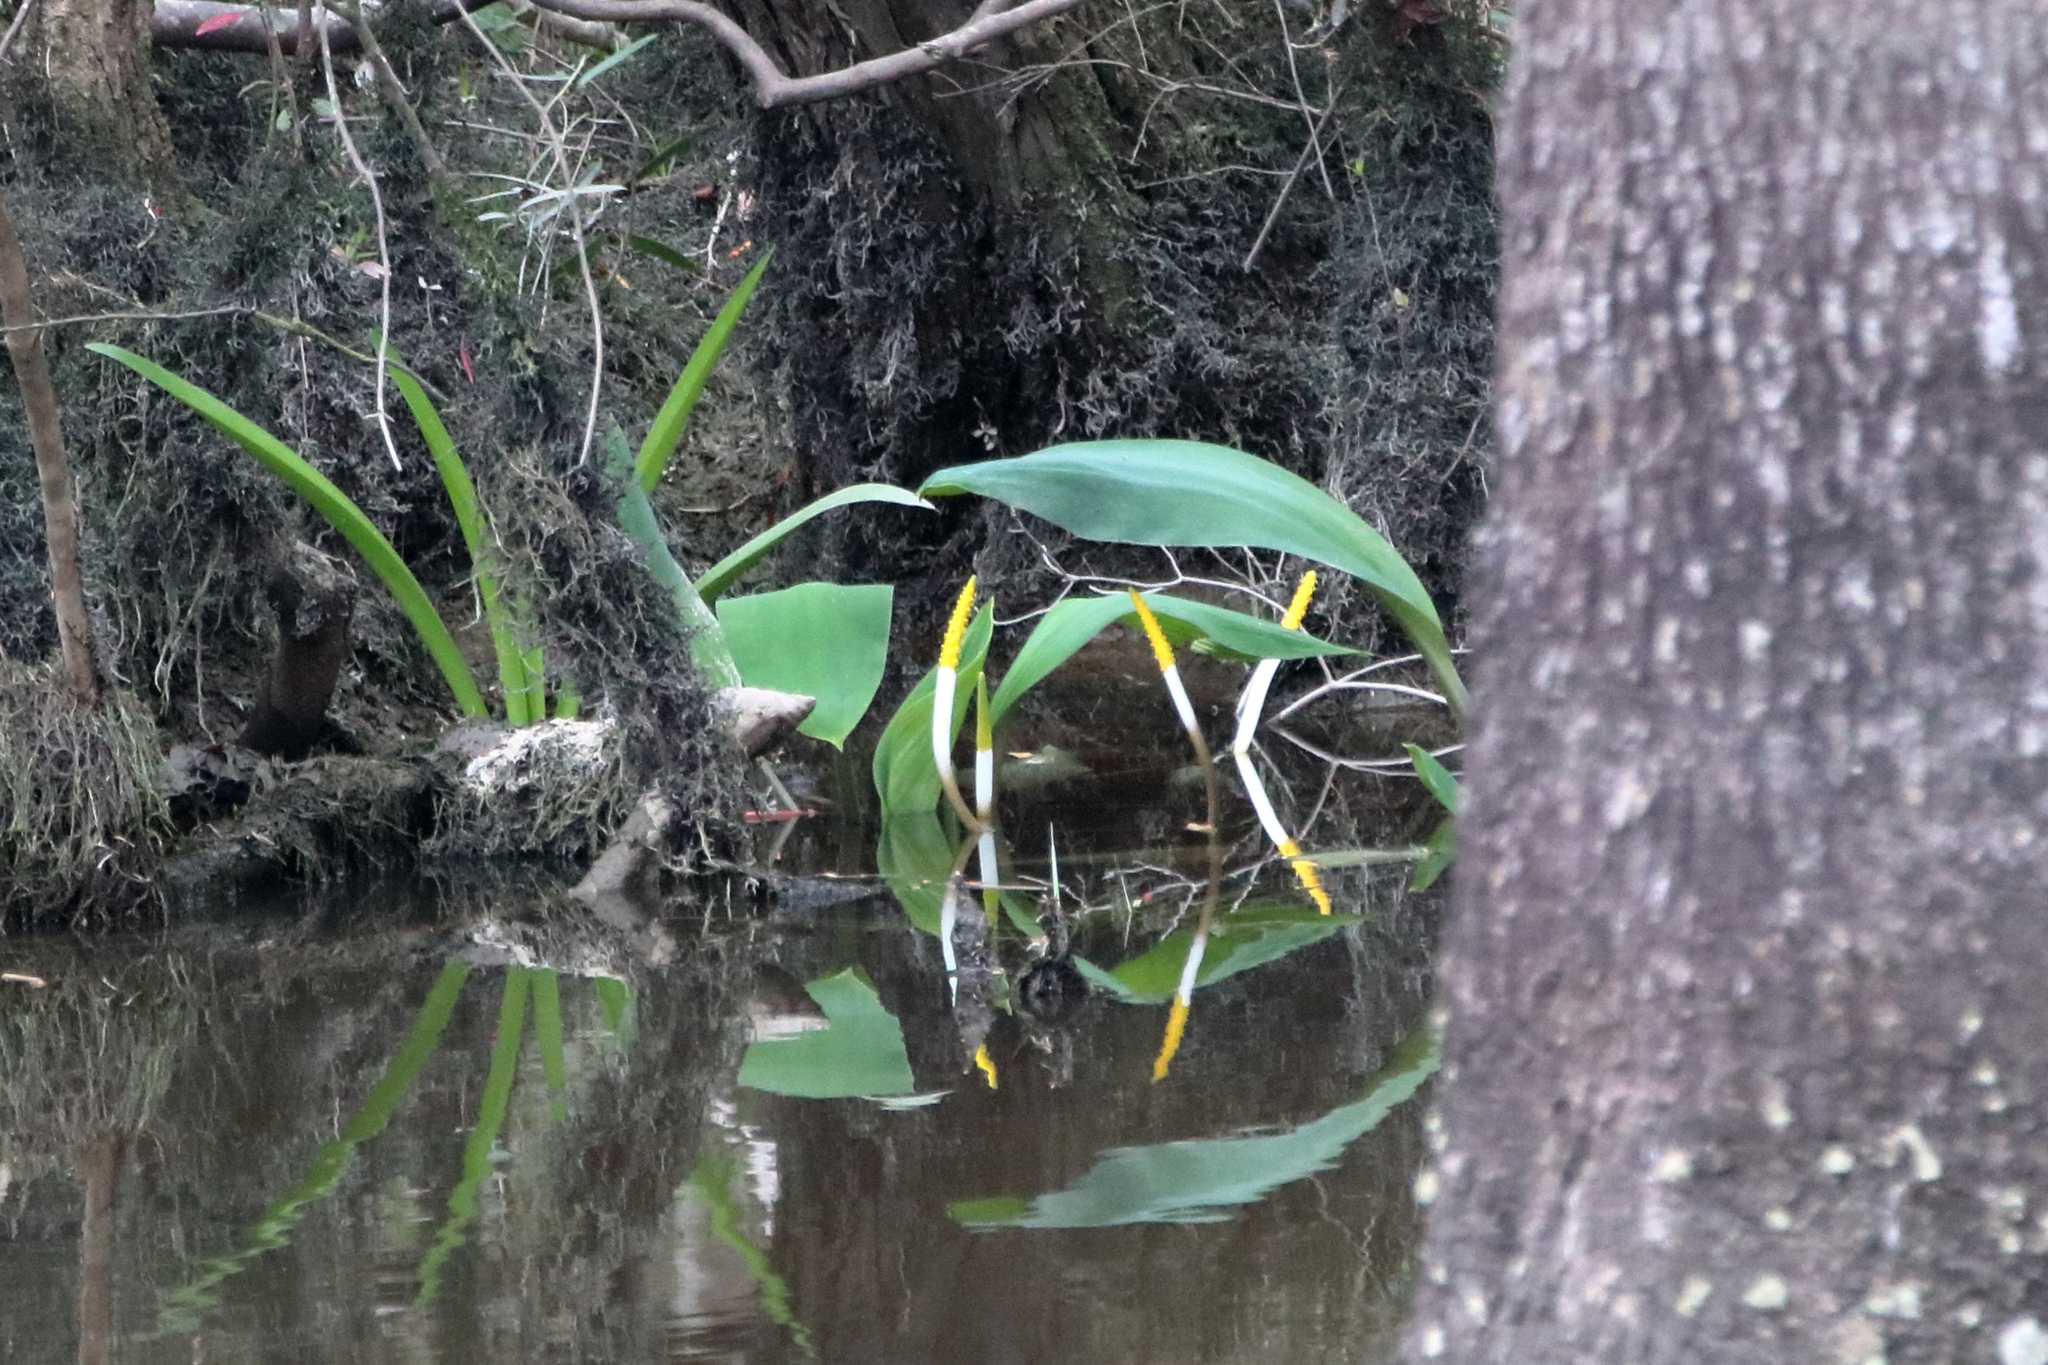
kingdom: Plantae
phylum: Tracheophyta
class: Liliopsida
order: Alismatales
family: Araceae
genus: Orontium
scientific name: Orontium aquaticum
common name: Golden-club
